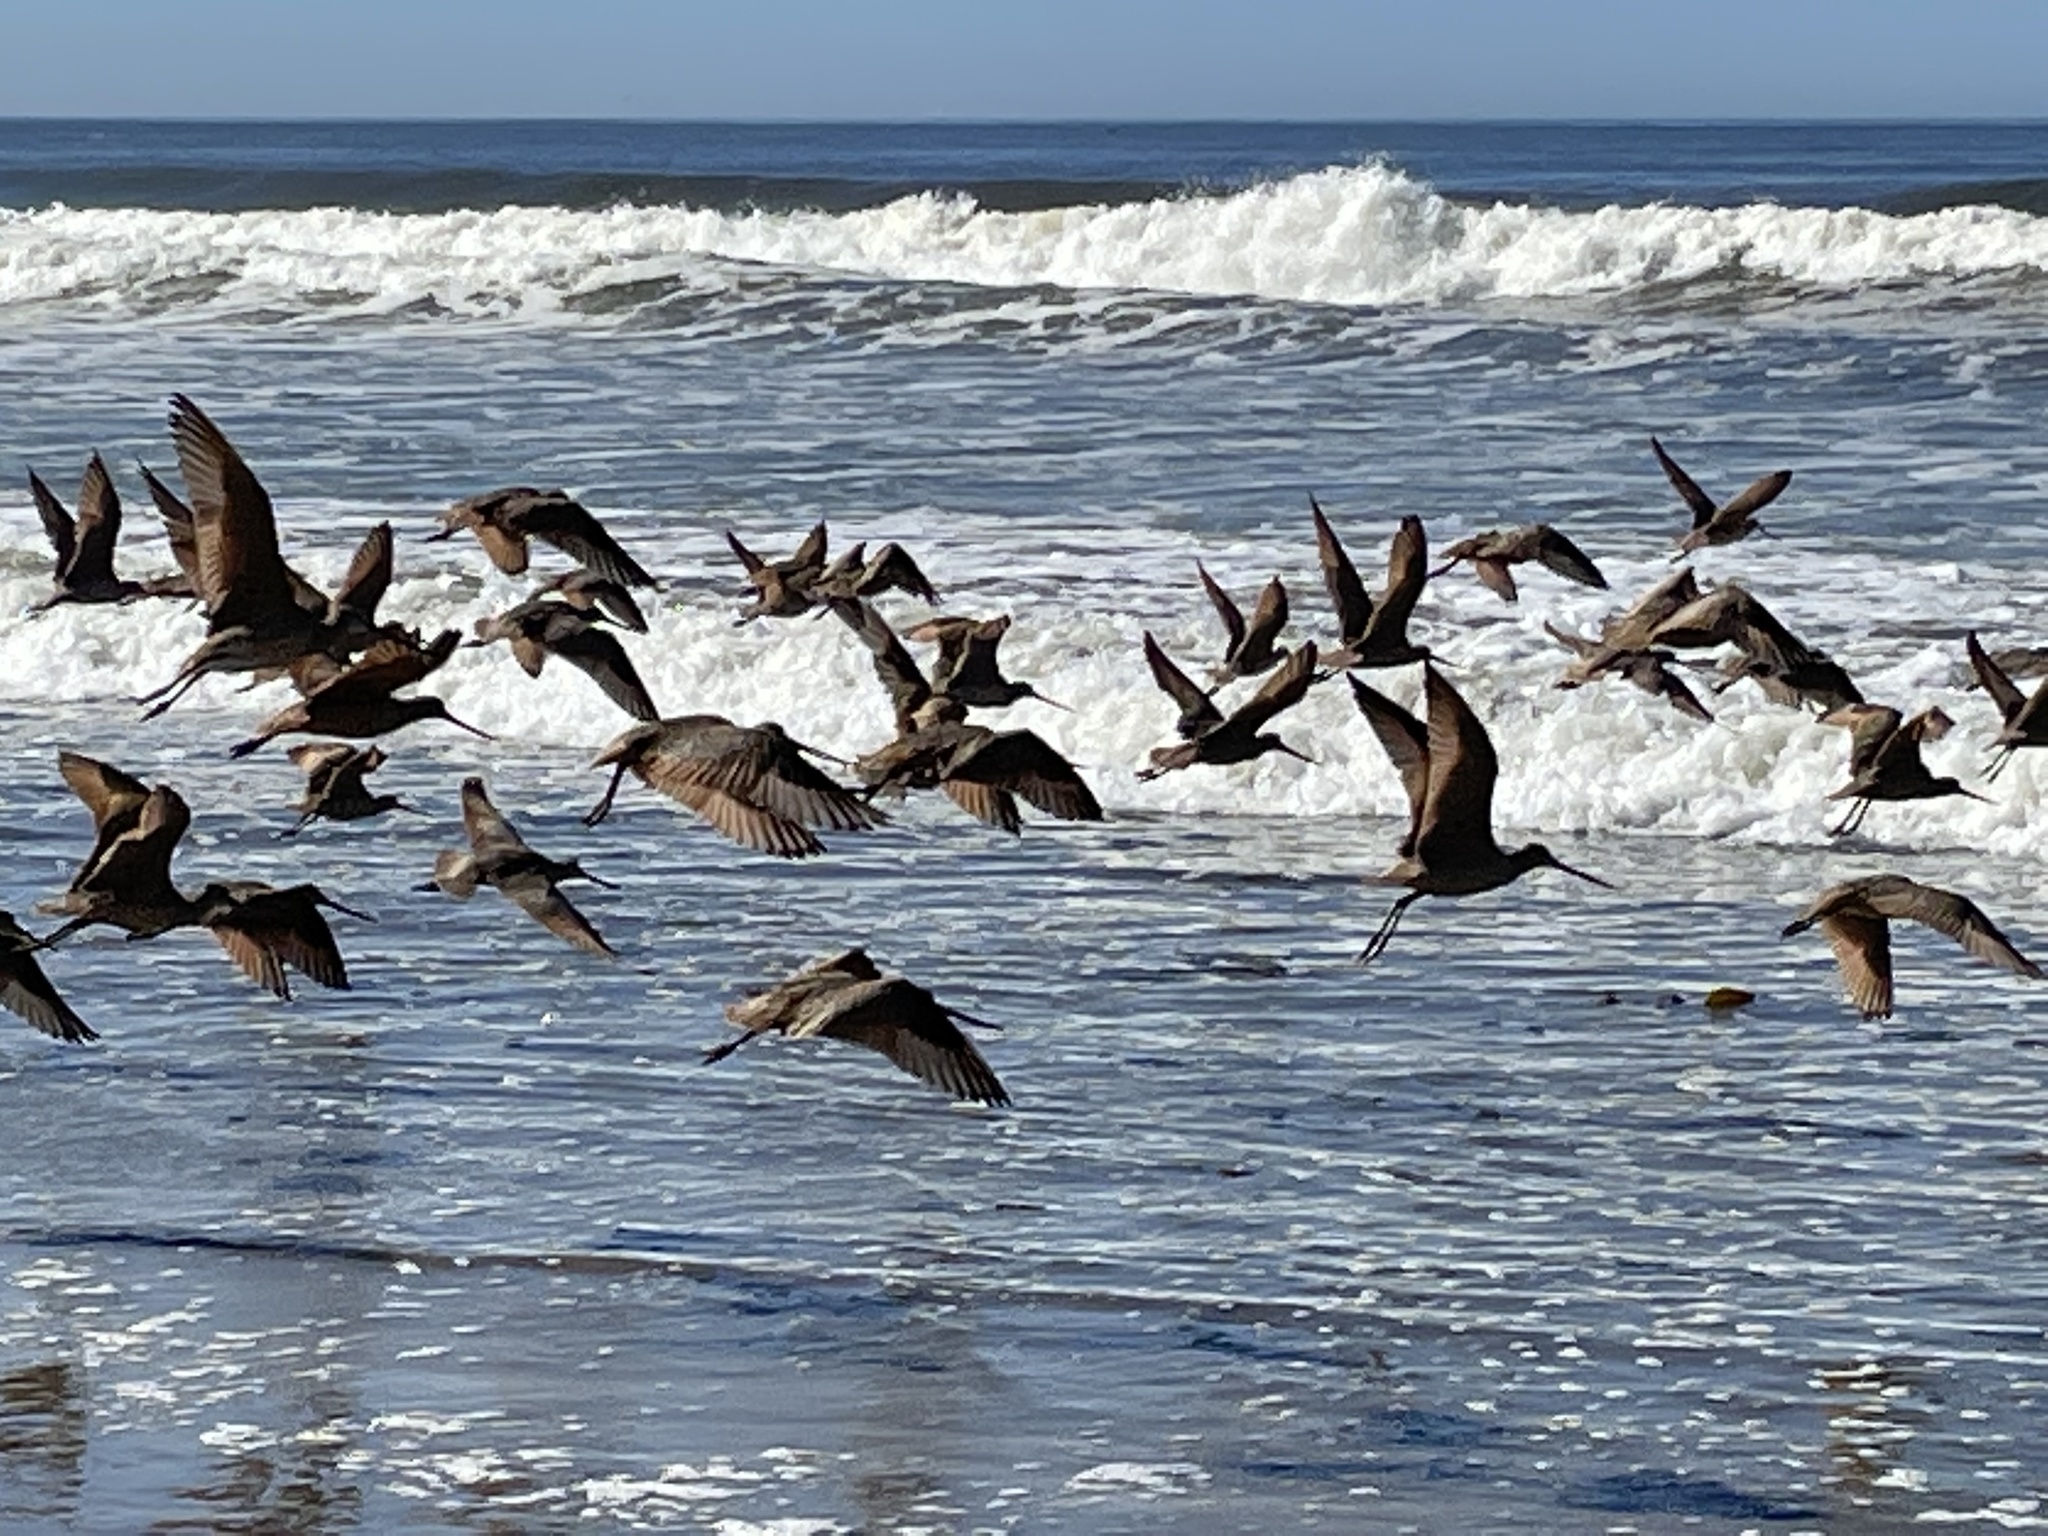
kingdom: Animalia
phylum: Chordata
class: Aves
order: Charadriiformes
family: Scolopacidae
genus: Limosa
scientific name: Limosa fedoa
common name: Marbled godwit
